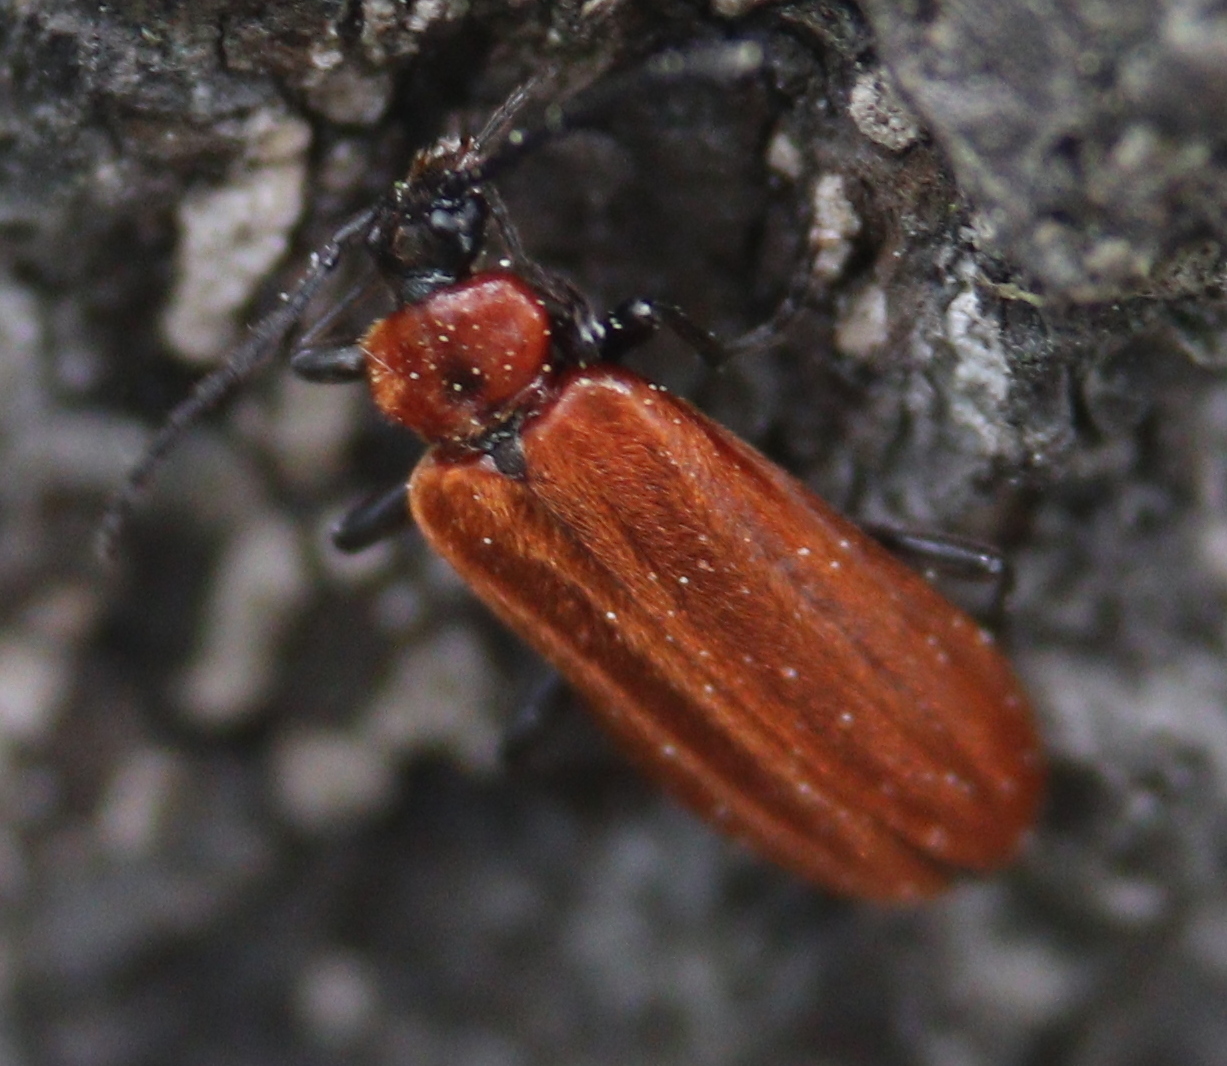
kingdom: Animalia
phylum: Arthropoda
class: Insecta
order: Coleoptera
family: Pyrochroidae
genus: Schizotus
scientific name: Schizotus pectinicornis
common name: Scarce cardinal beetle
